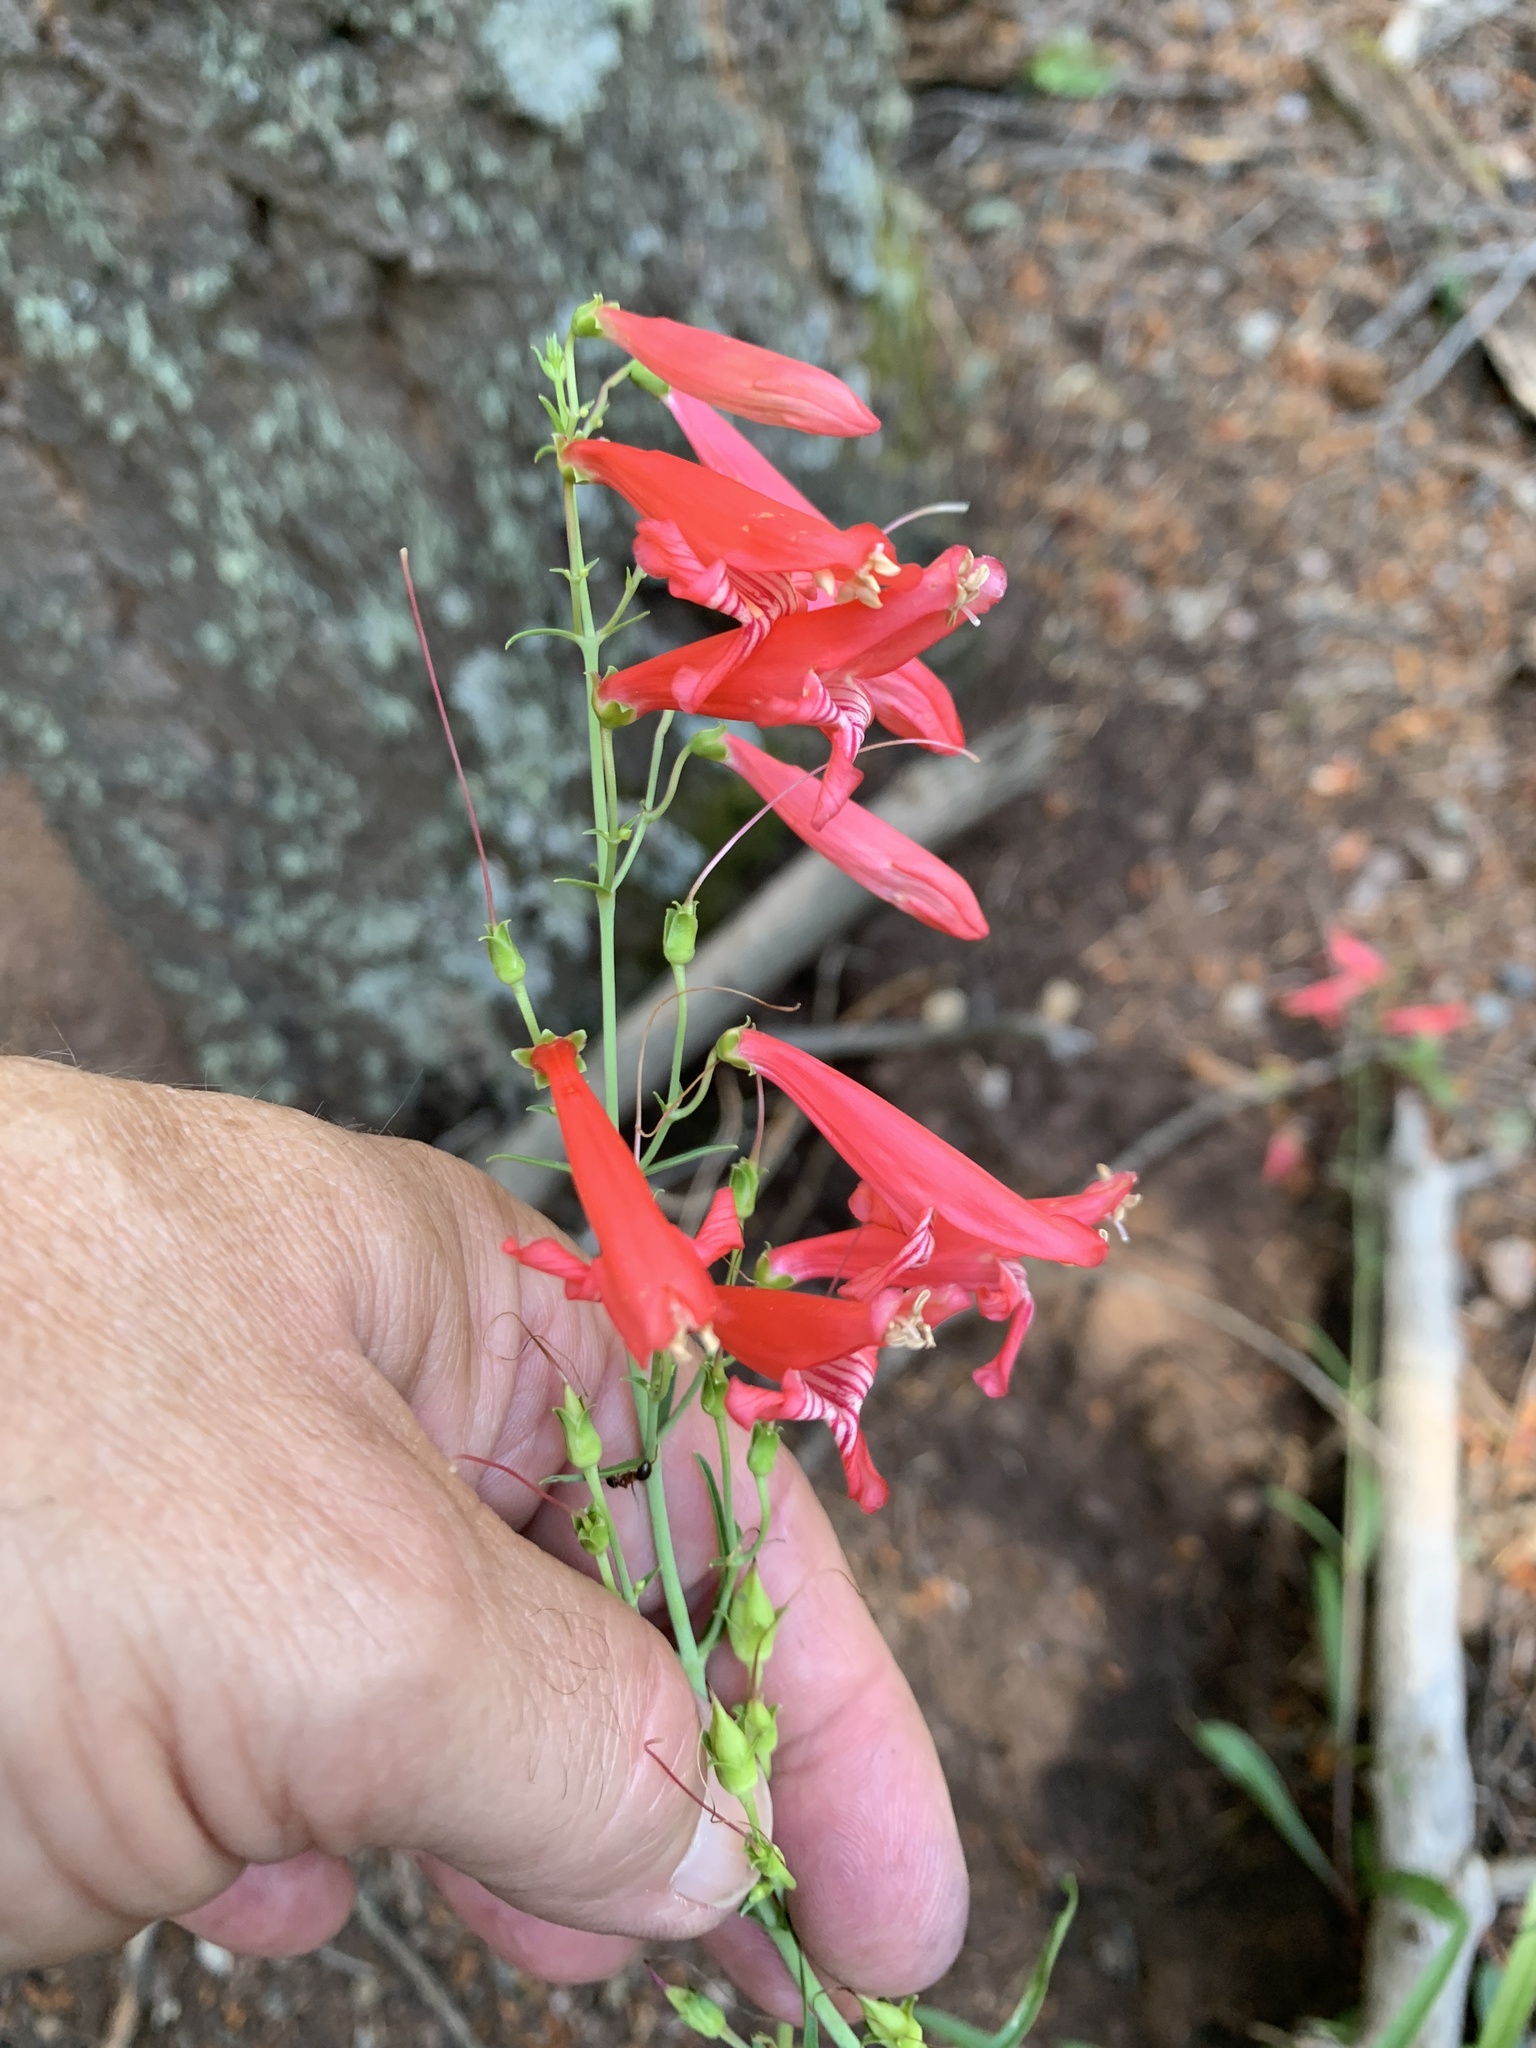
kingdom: Plantae
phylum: Tracheophyta
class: Magnoliopsida
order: Lamiales
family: Plantaginaceae
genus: Penstemon
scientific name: Penstemon barbatus
